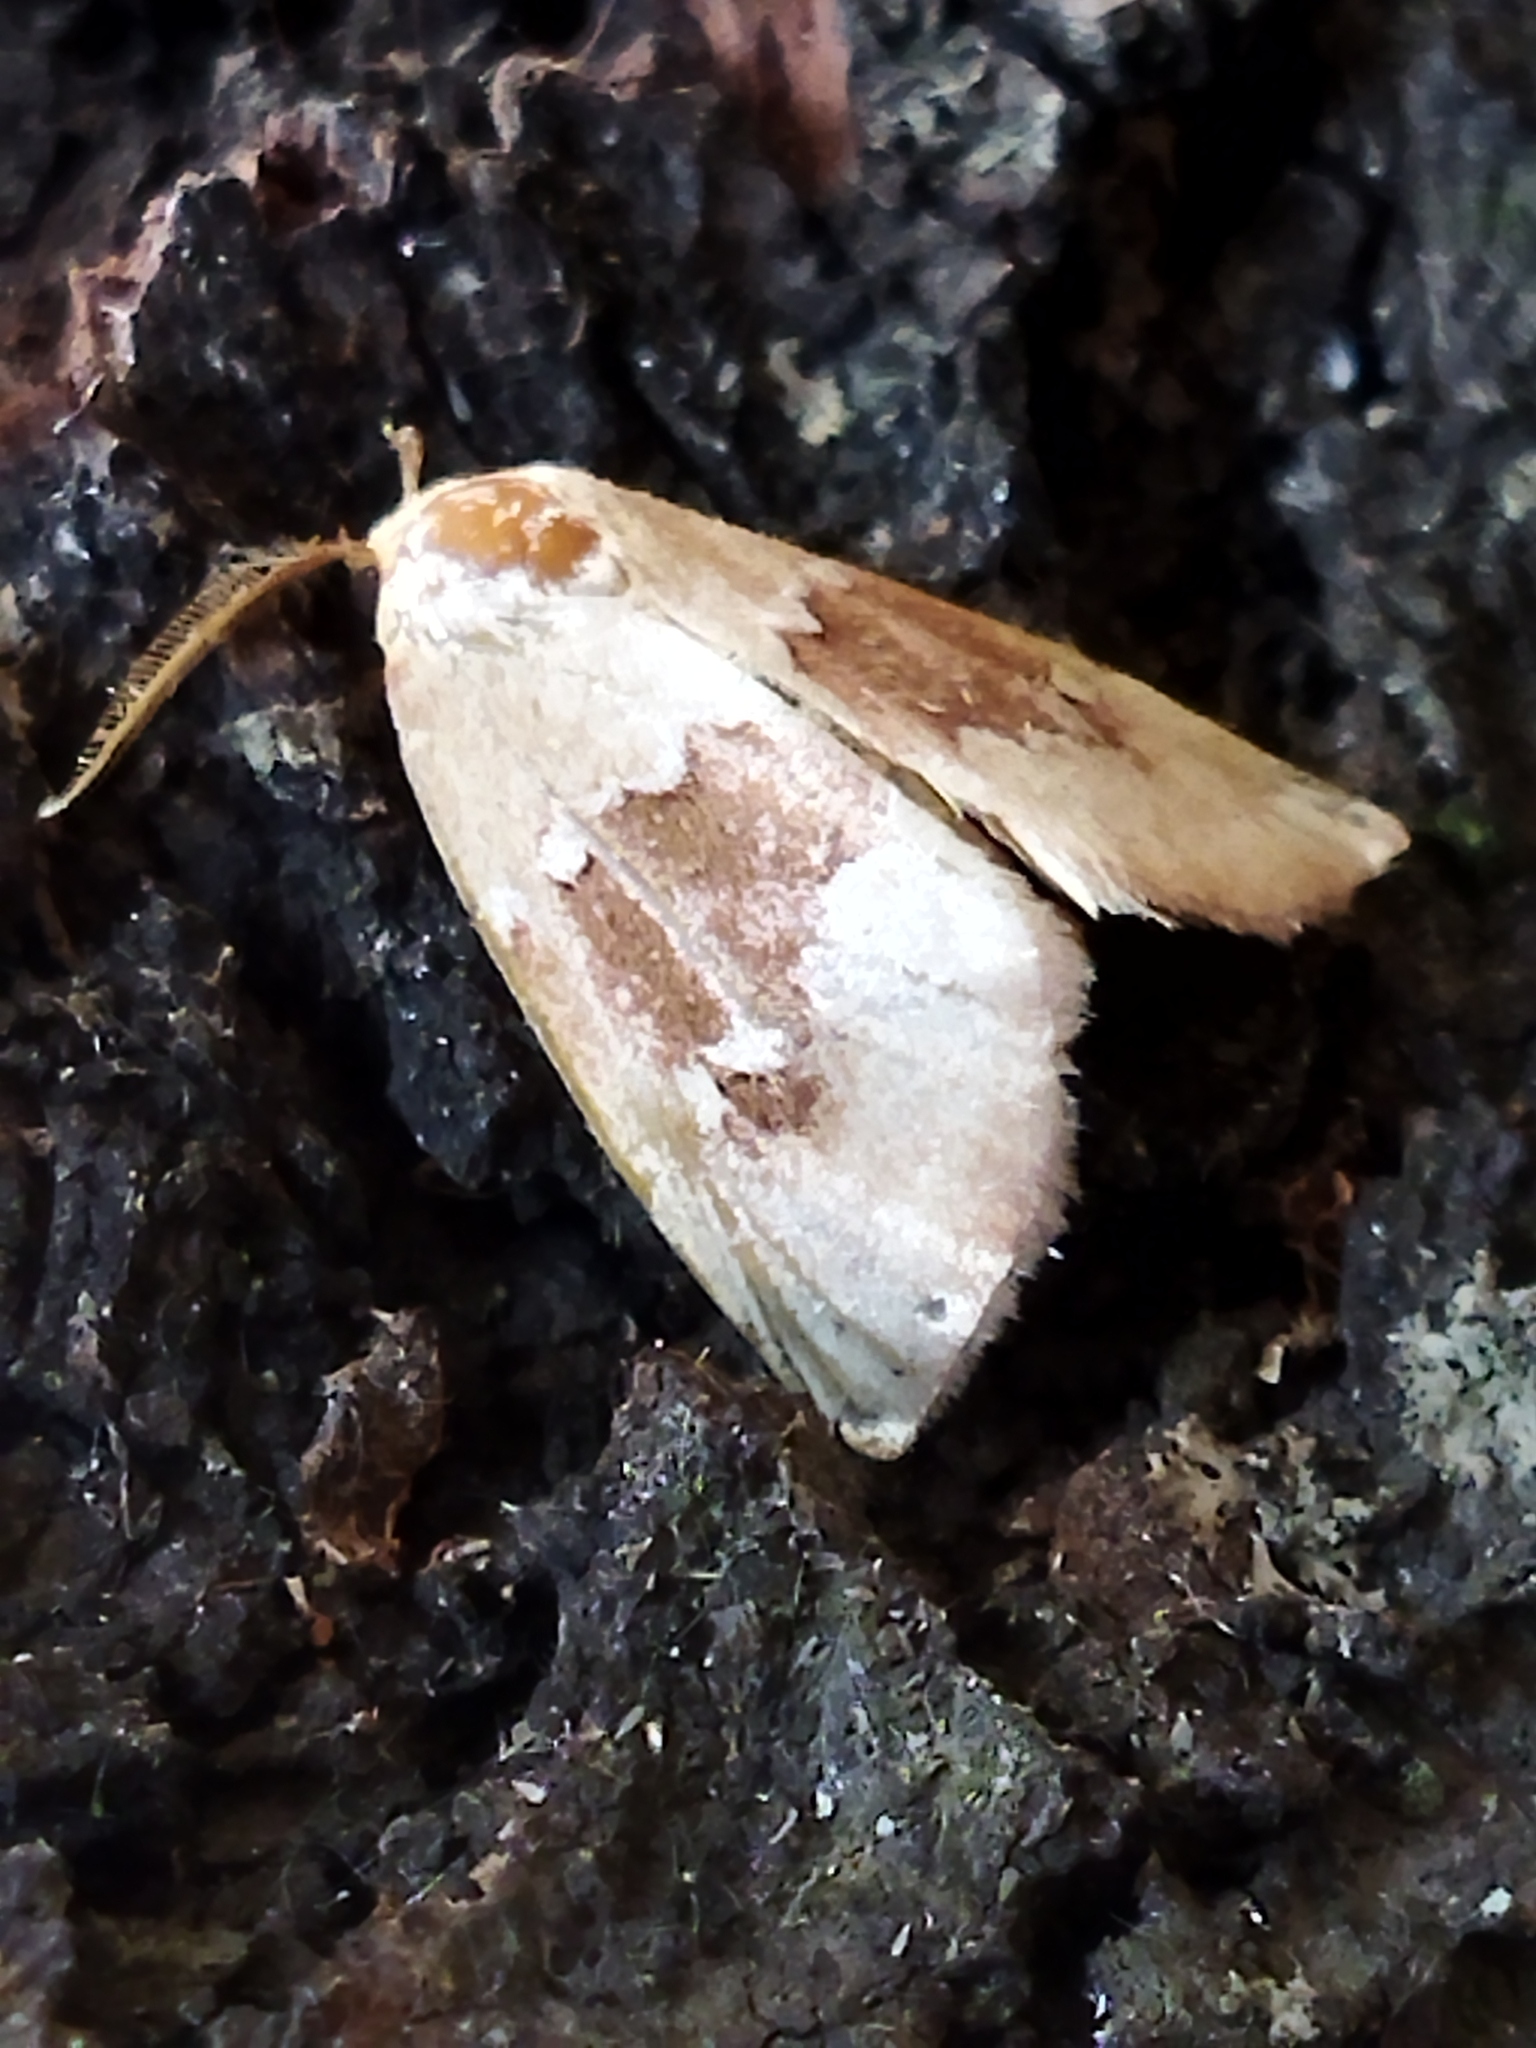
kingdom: Animalia
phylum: Arthropoda
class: Insecta
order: Lepidoptera
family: Noctuidae
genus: Haemerosia
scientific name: Haemerosia vassilininei
